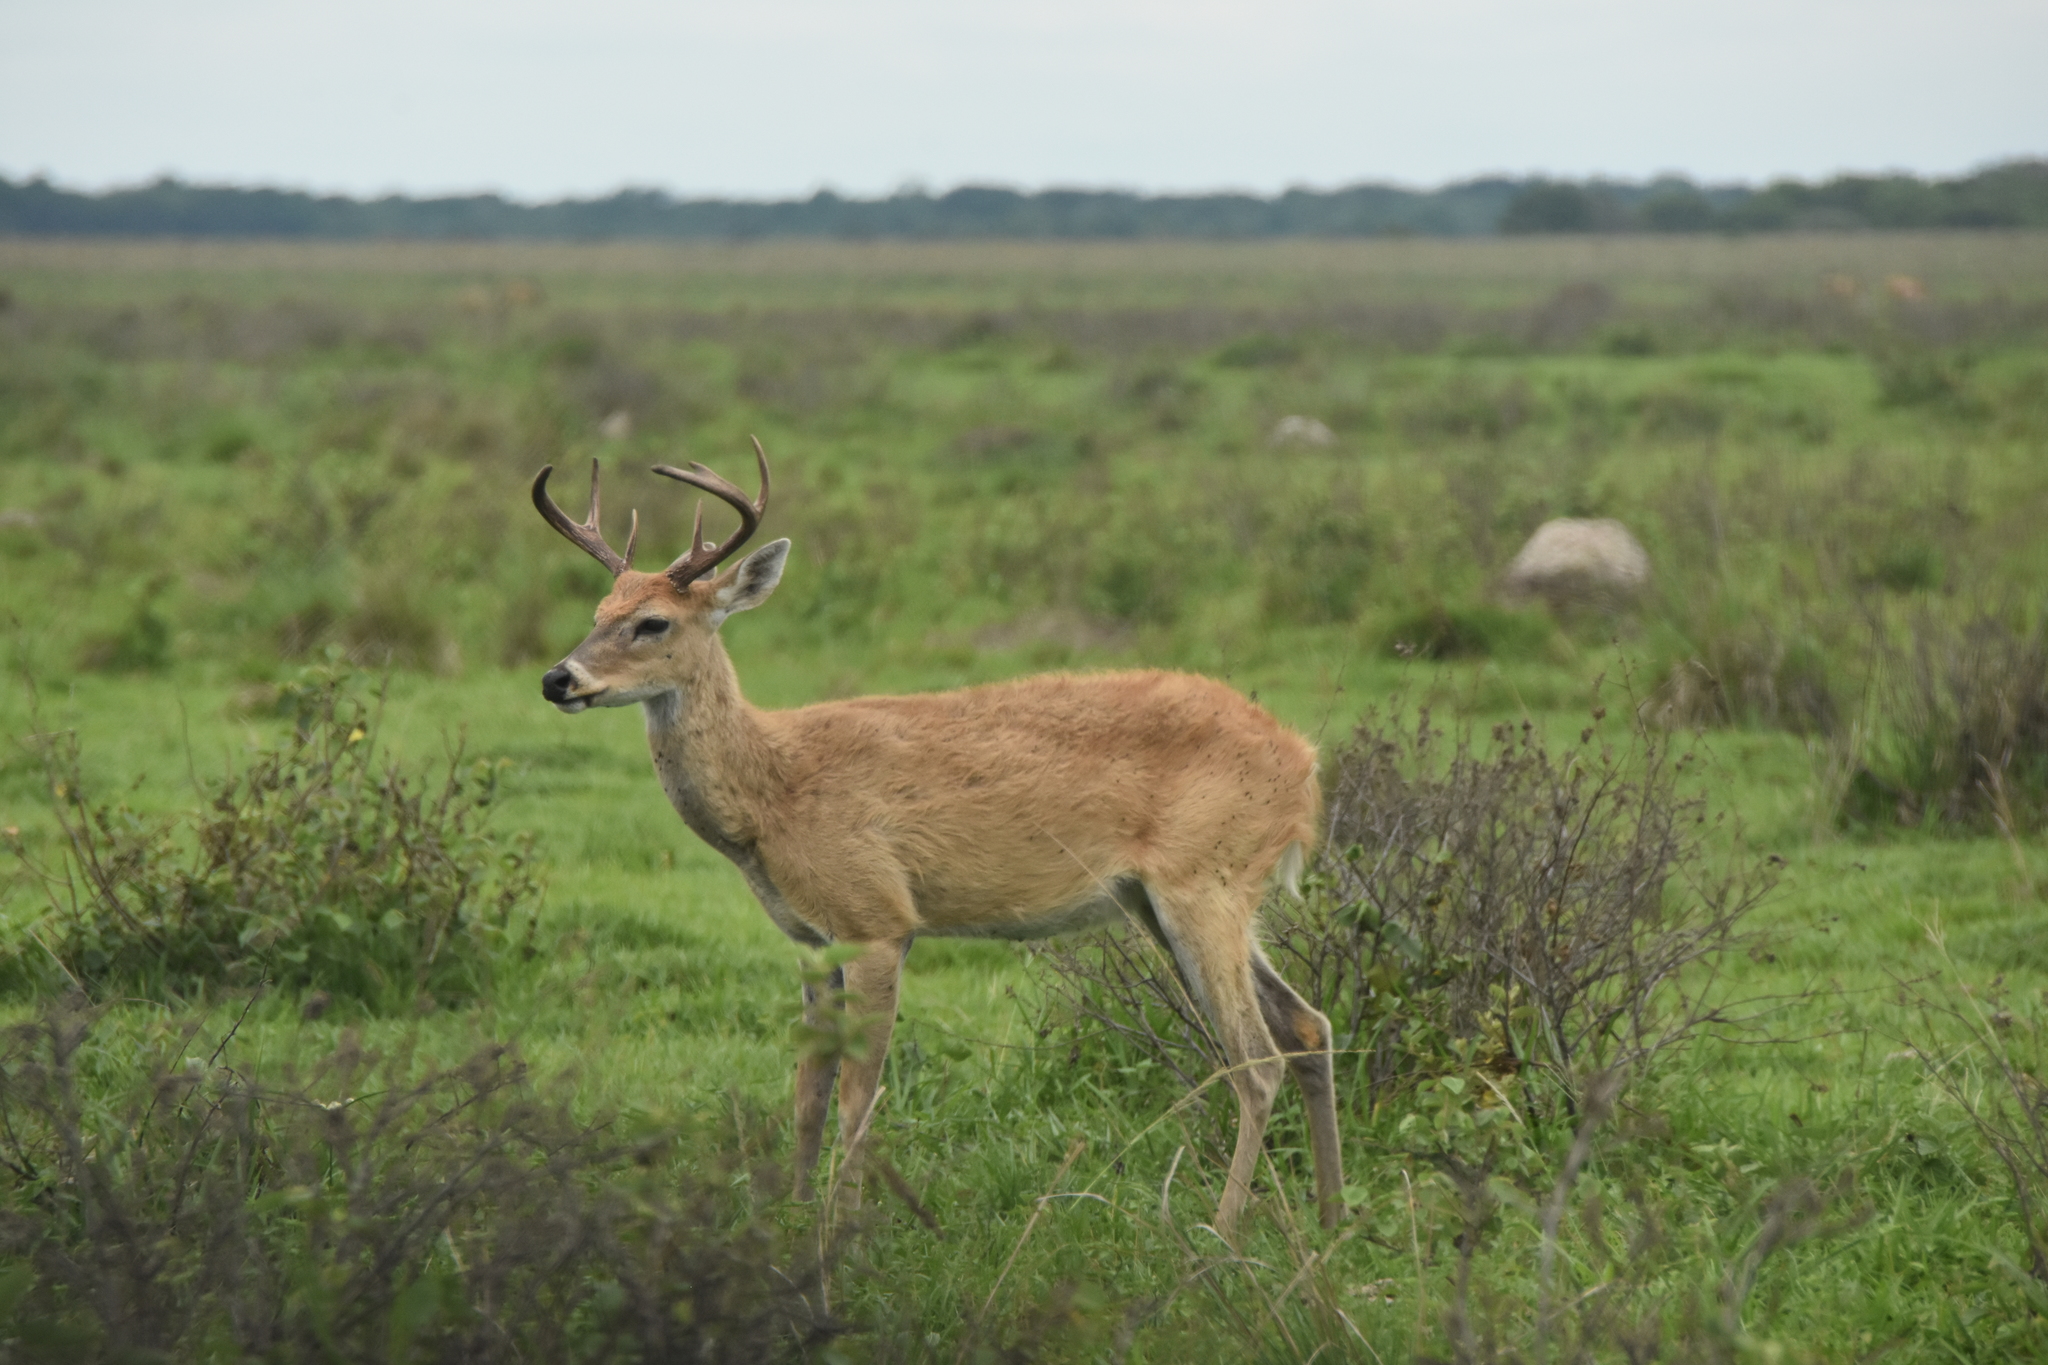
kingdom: Animalia
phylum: Chordata
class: Mammalia
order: Artiodactyla
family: Cervidae
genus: Odocoileus
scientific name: Odocoileus virginianus
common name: White-tailed deer
